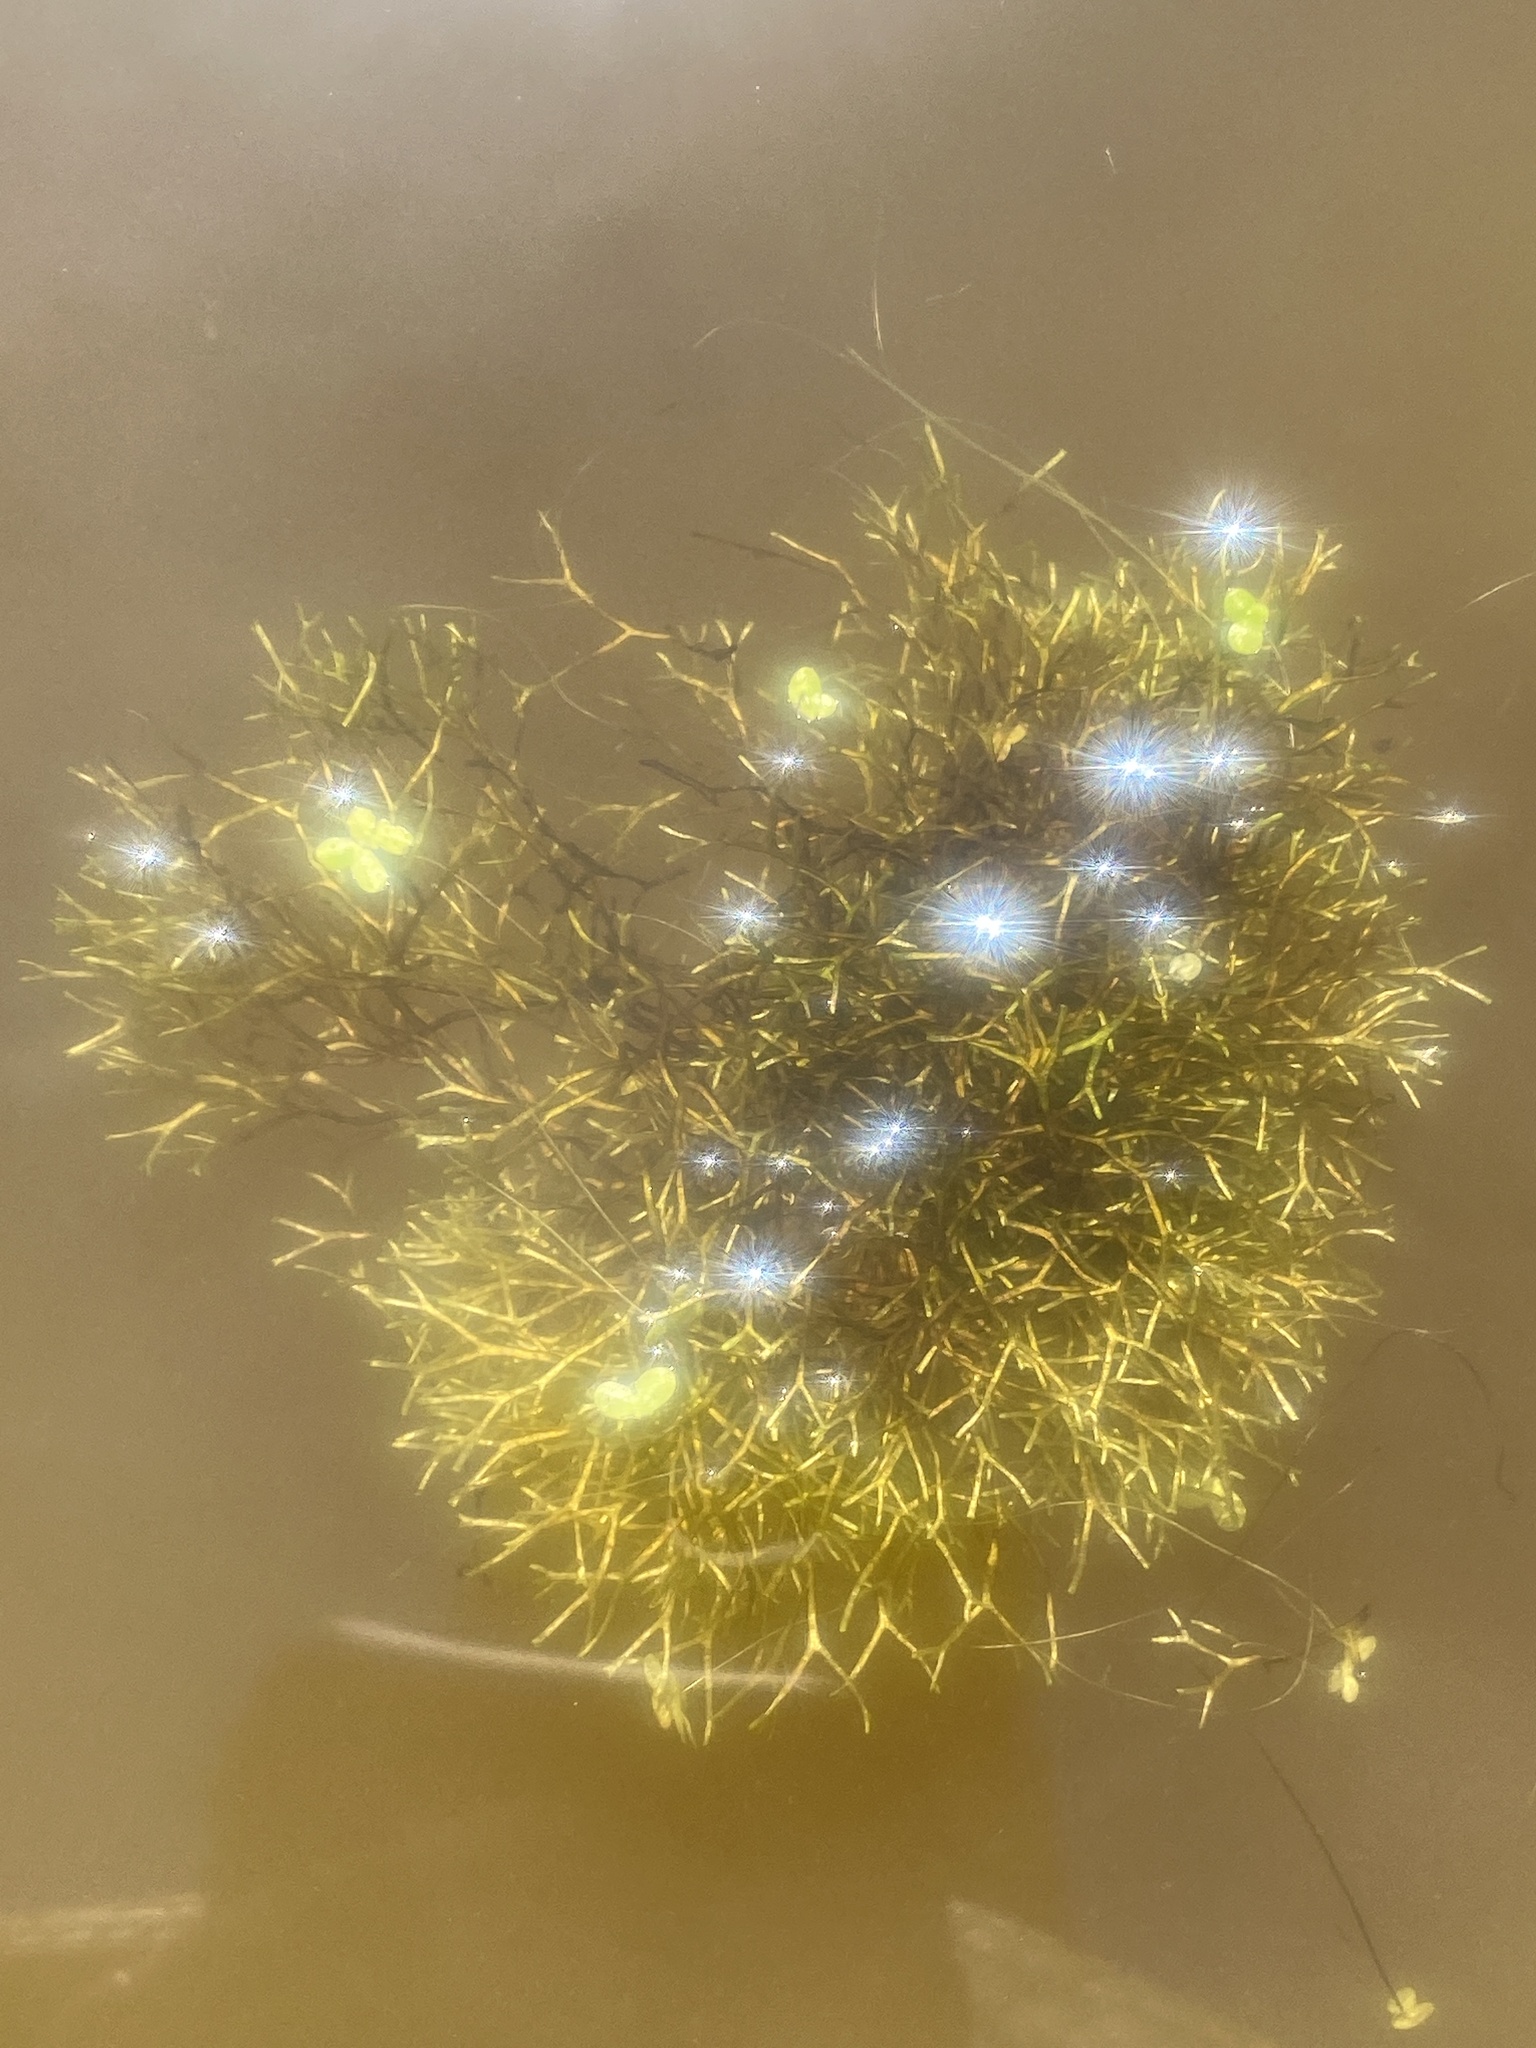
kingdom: Plantae
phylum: Marchantiophyta
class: Marchantiopsida
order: Marchantiales
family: Ricciaceae
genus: Riccia
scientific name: Riccia fluitans
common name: Floating crystalwort
